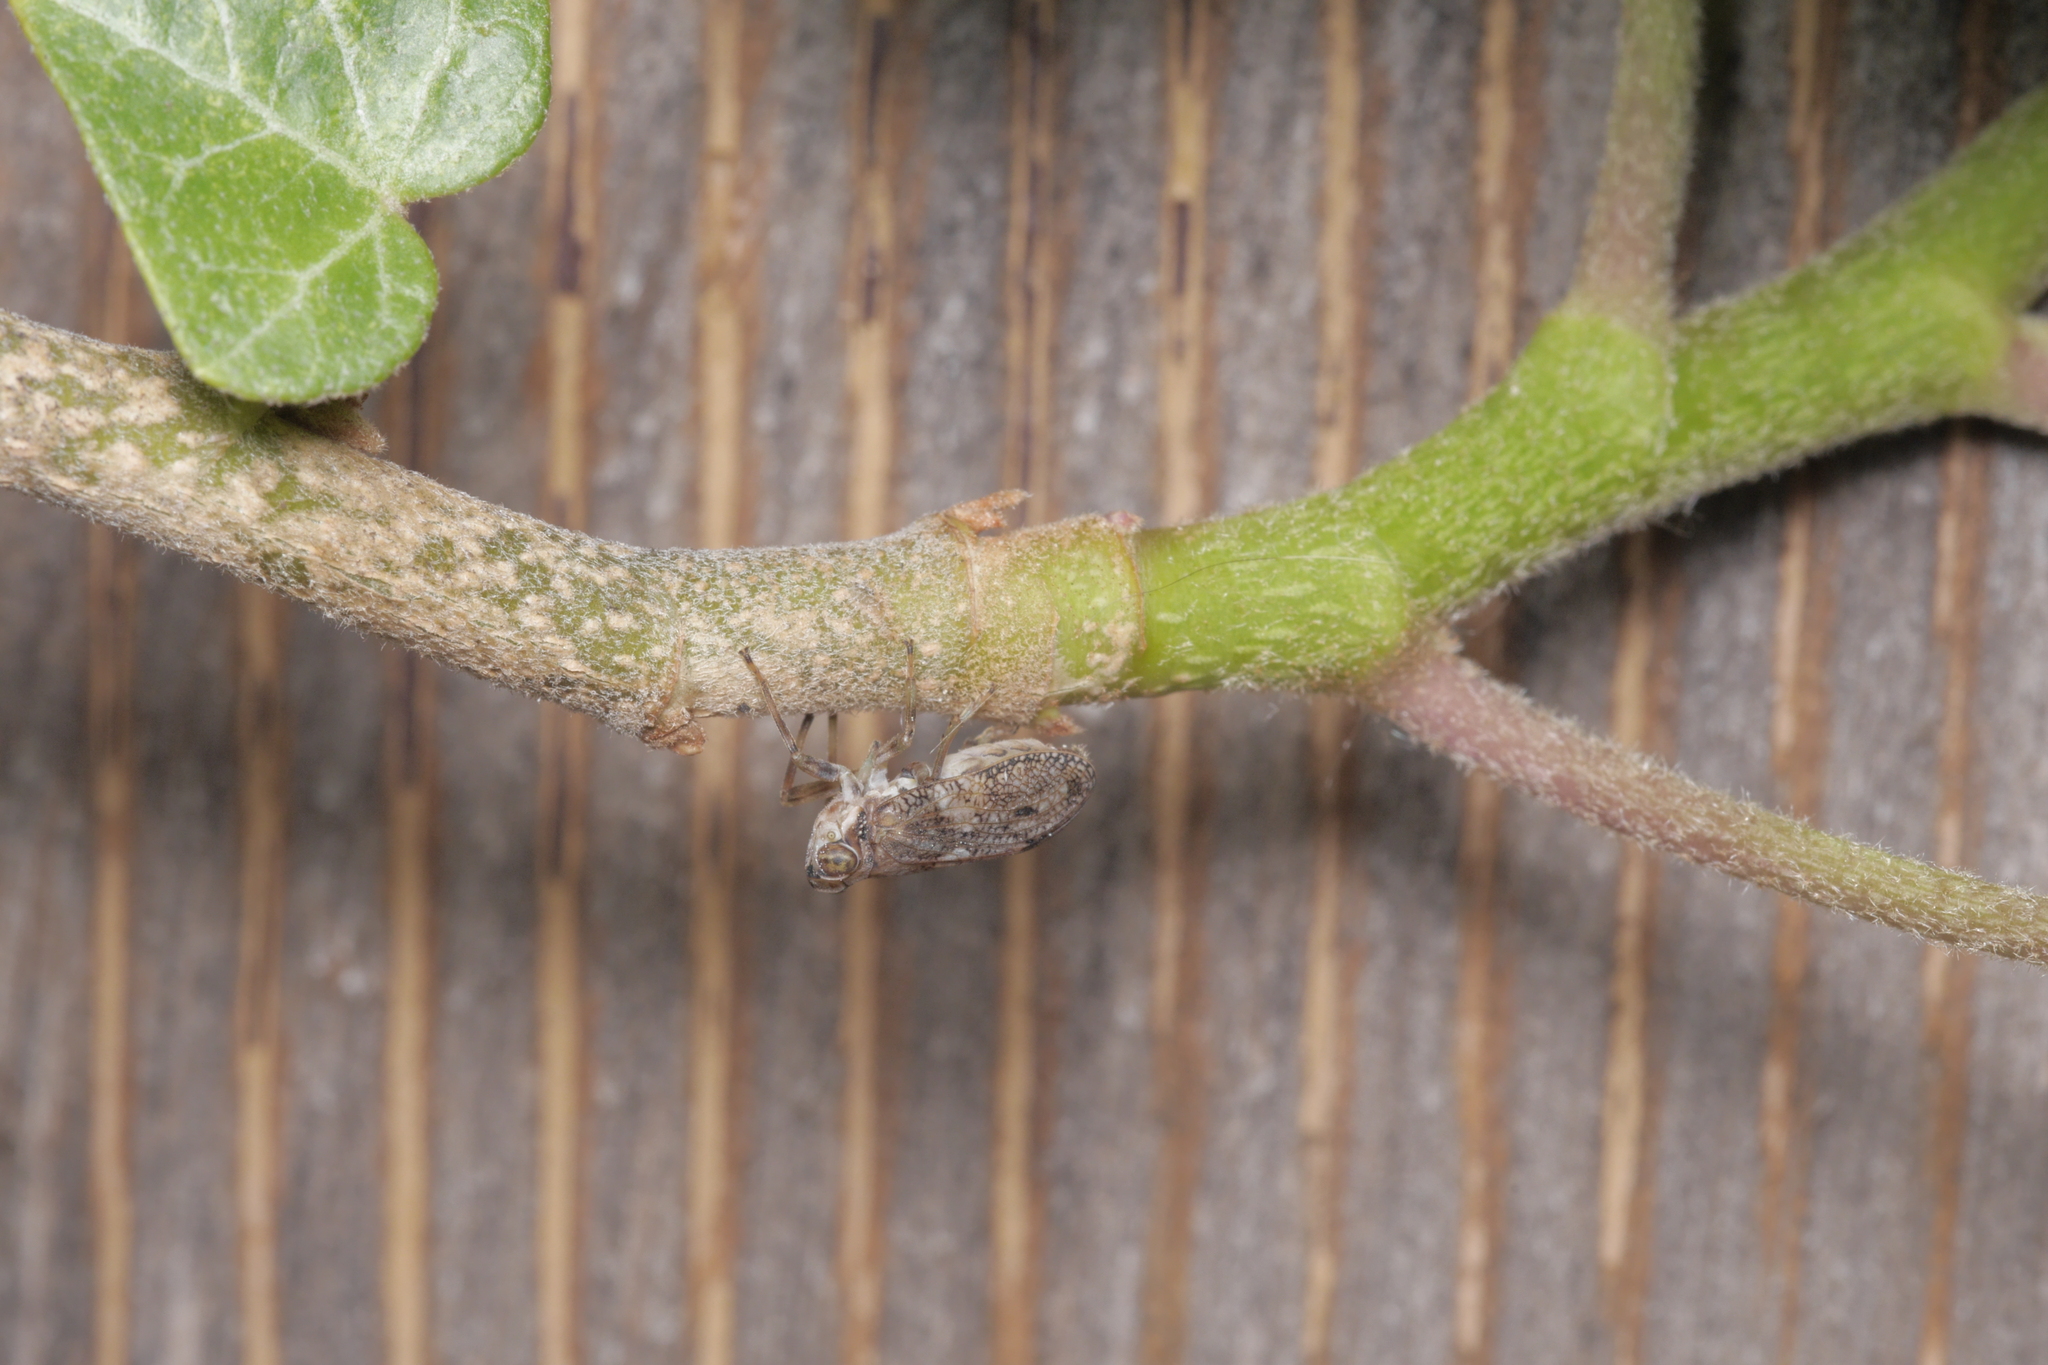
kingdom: Animalia
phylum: Arthropoda
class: Insecta
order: Hemiptera
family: Issidae
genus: Issus
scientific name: Issus coleoptratus
